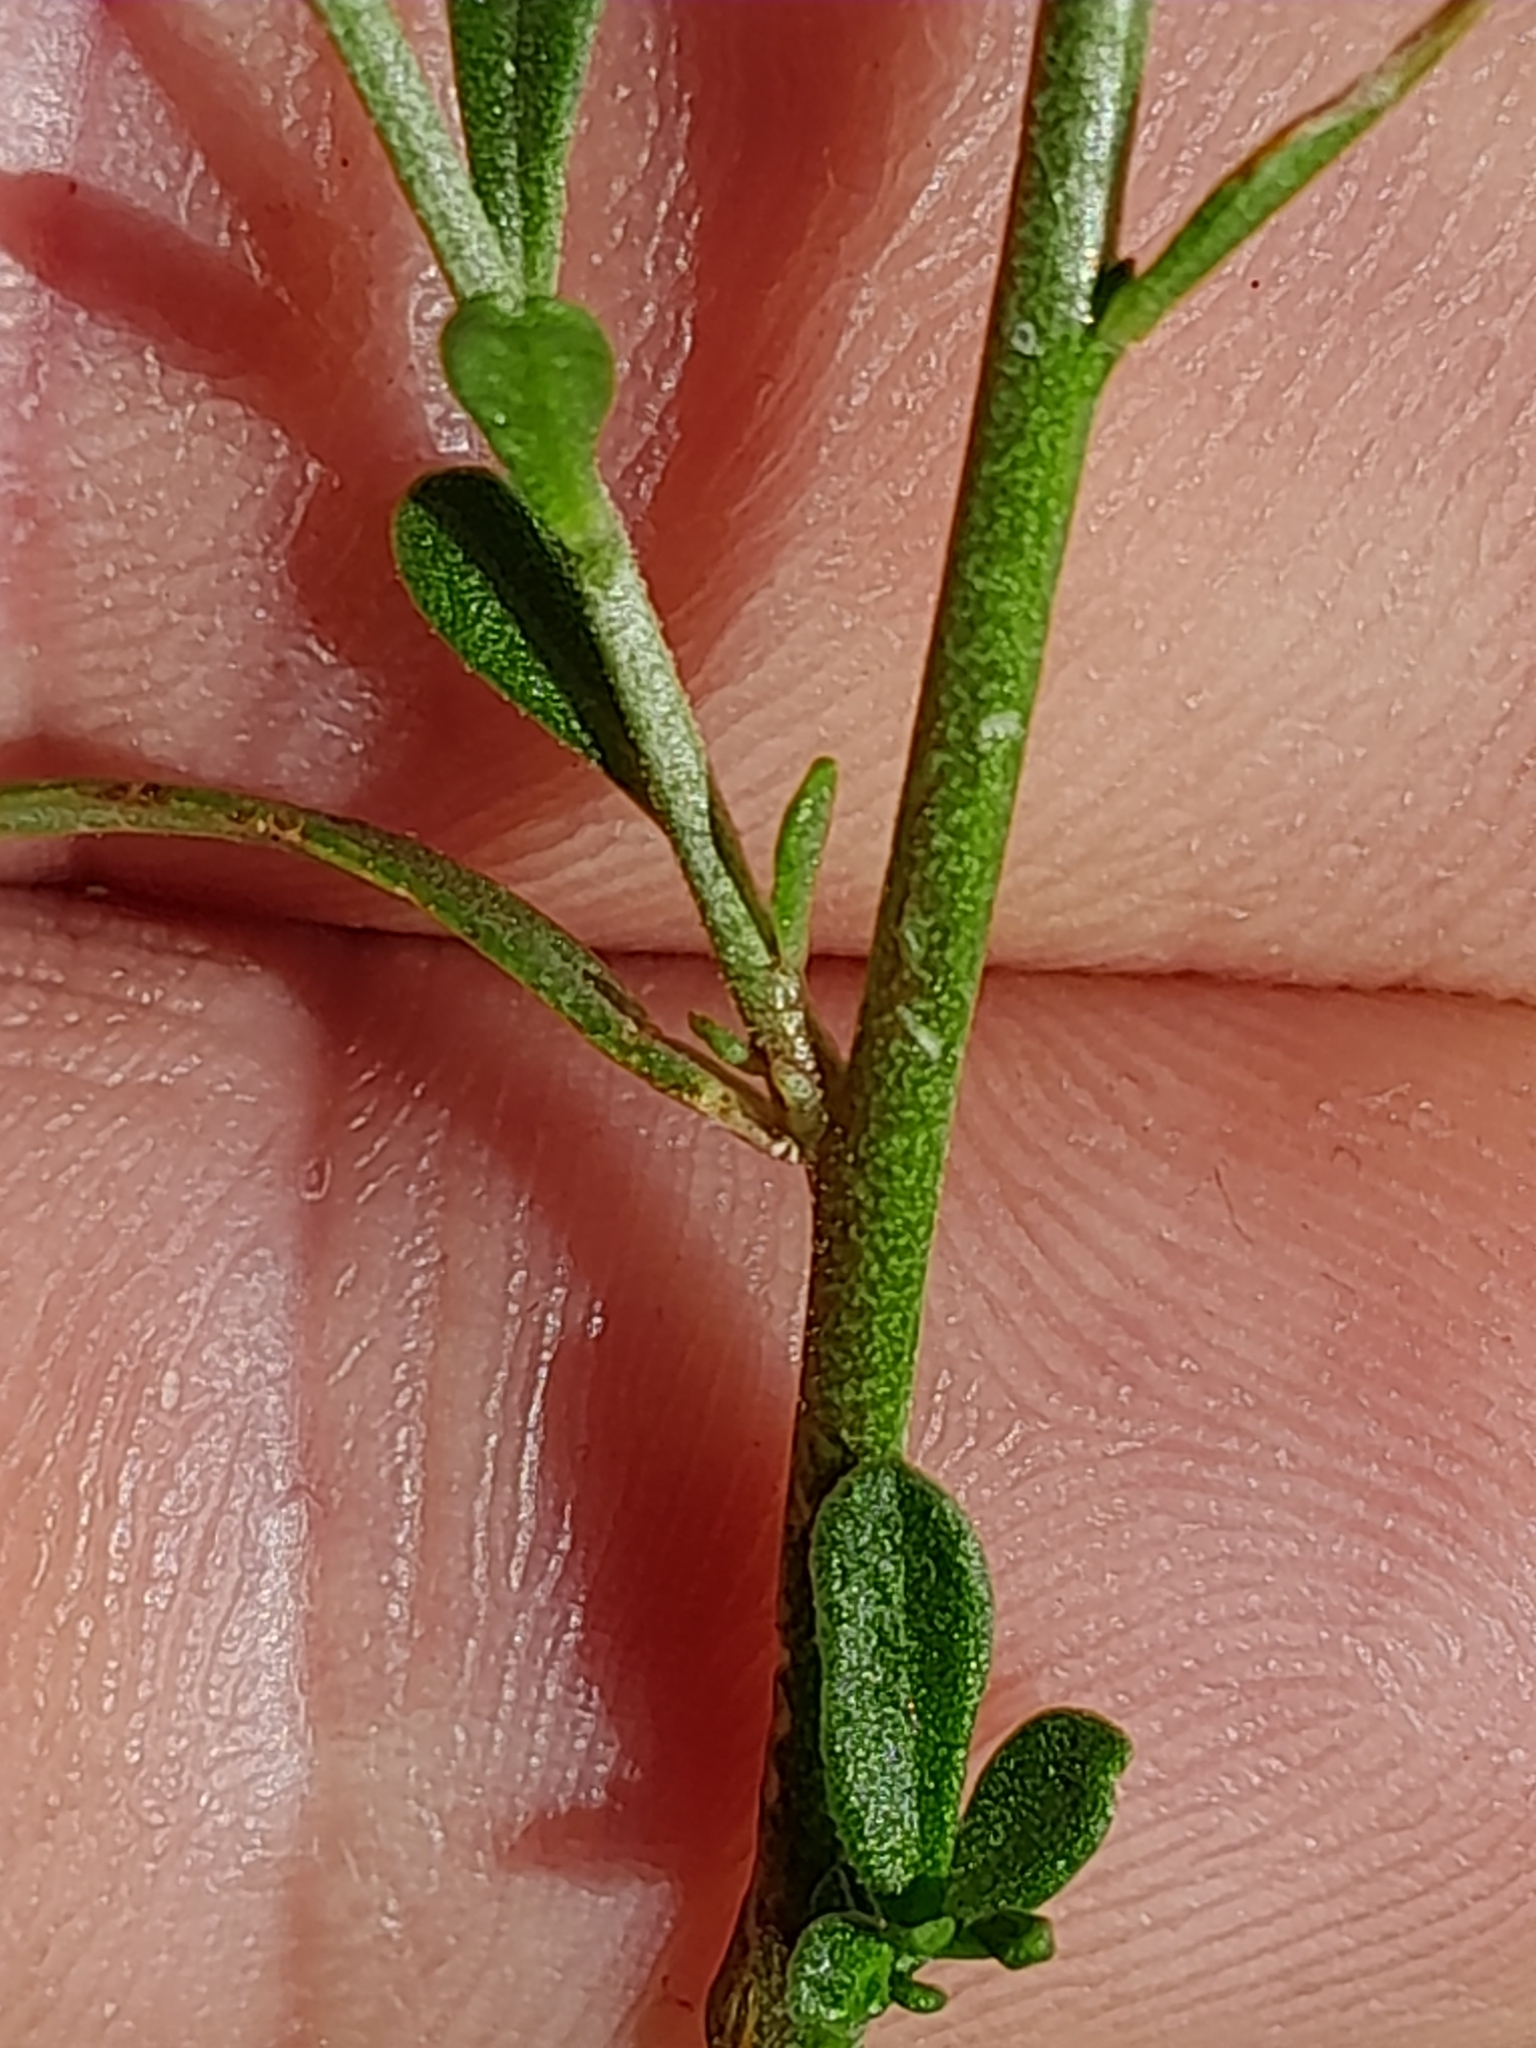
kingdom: Plantae
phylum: Tracheophyta
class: Magnoliopsida
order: Fabales
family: Polygalaceae
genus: Polygala
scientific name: Polygala comosa
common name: Tufted milkwort
